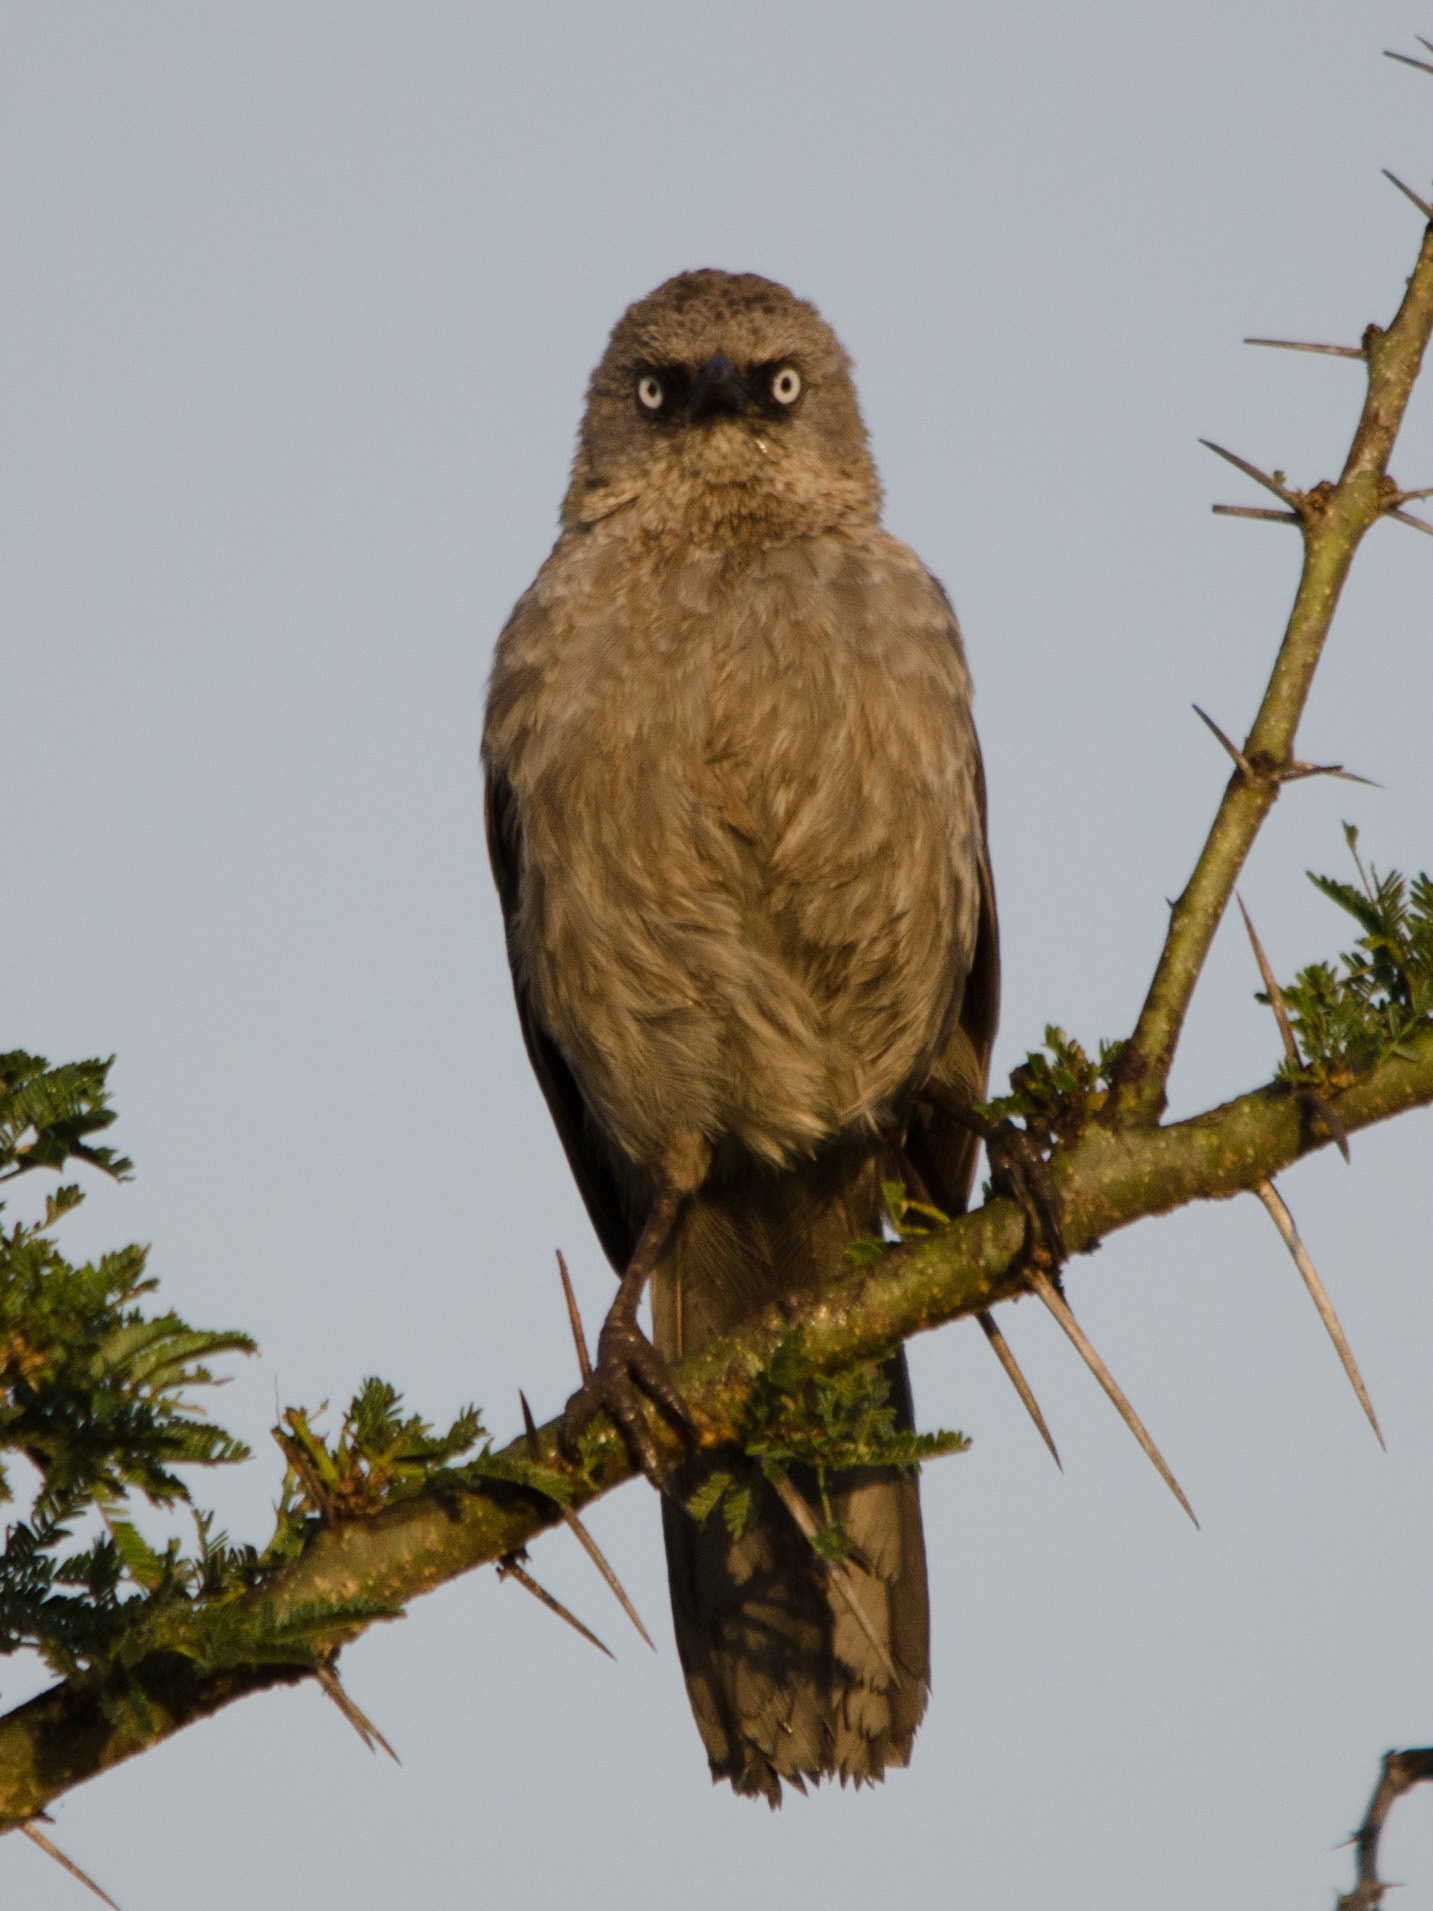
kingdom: Animalia
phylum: Chordata
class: Aves
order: Passeriformes
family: Leiothrichidae
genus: Turdoides
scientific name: Turdoides sharpei
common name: Black-lored babbler
